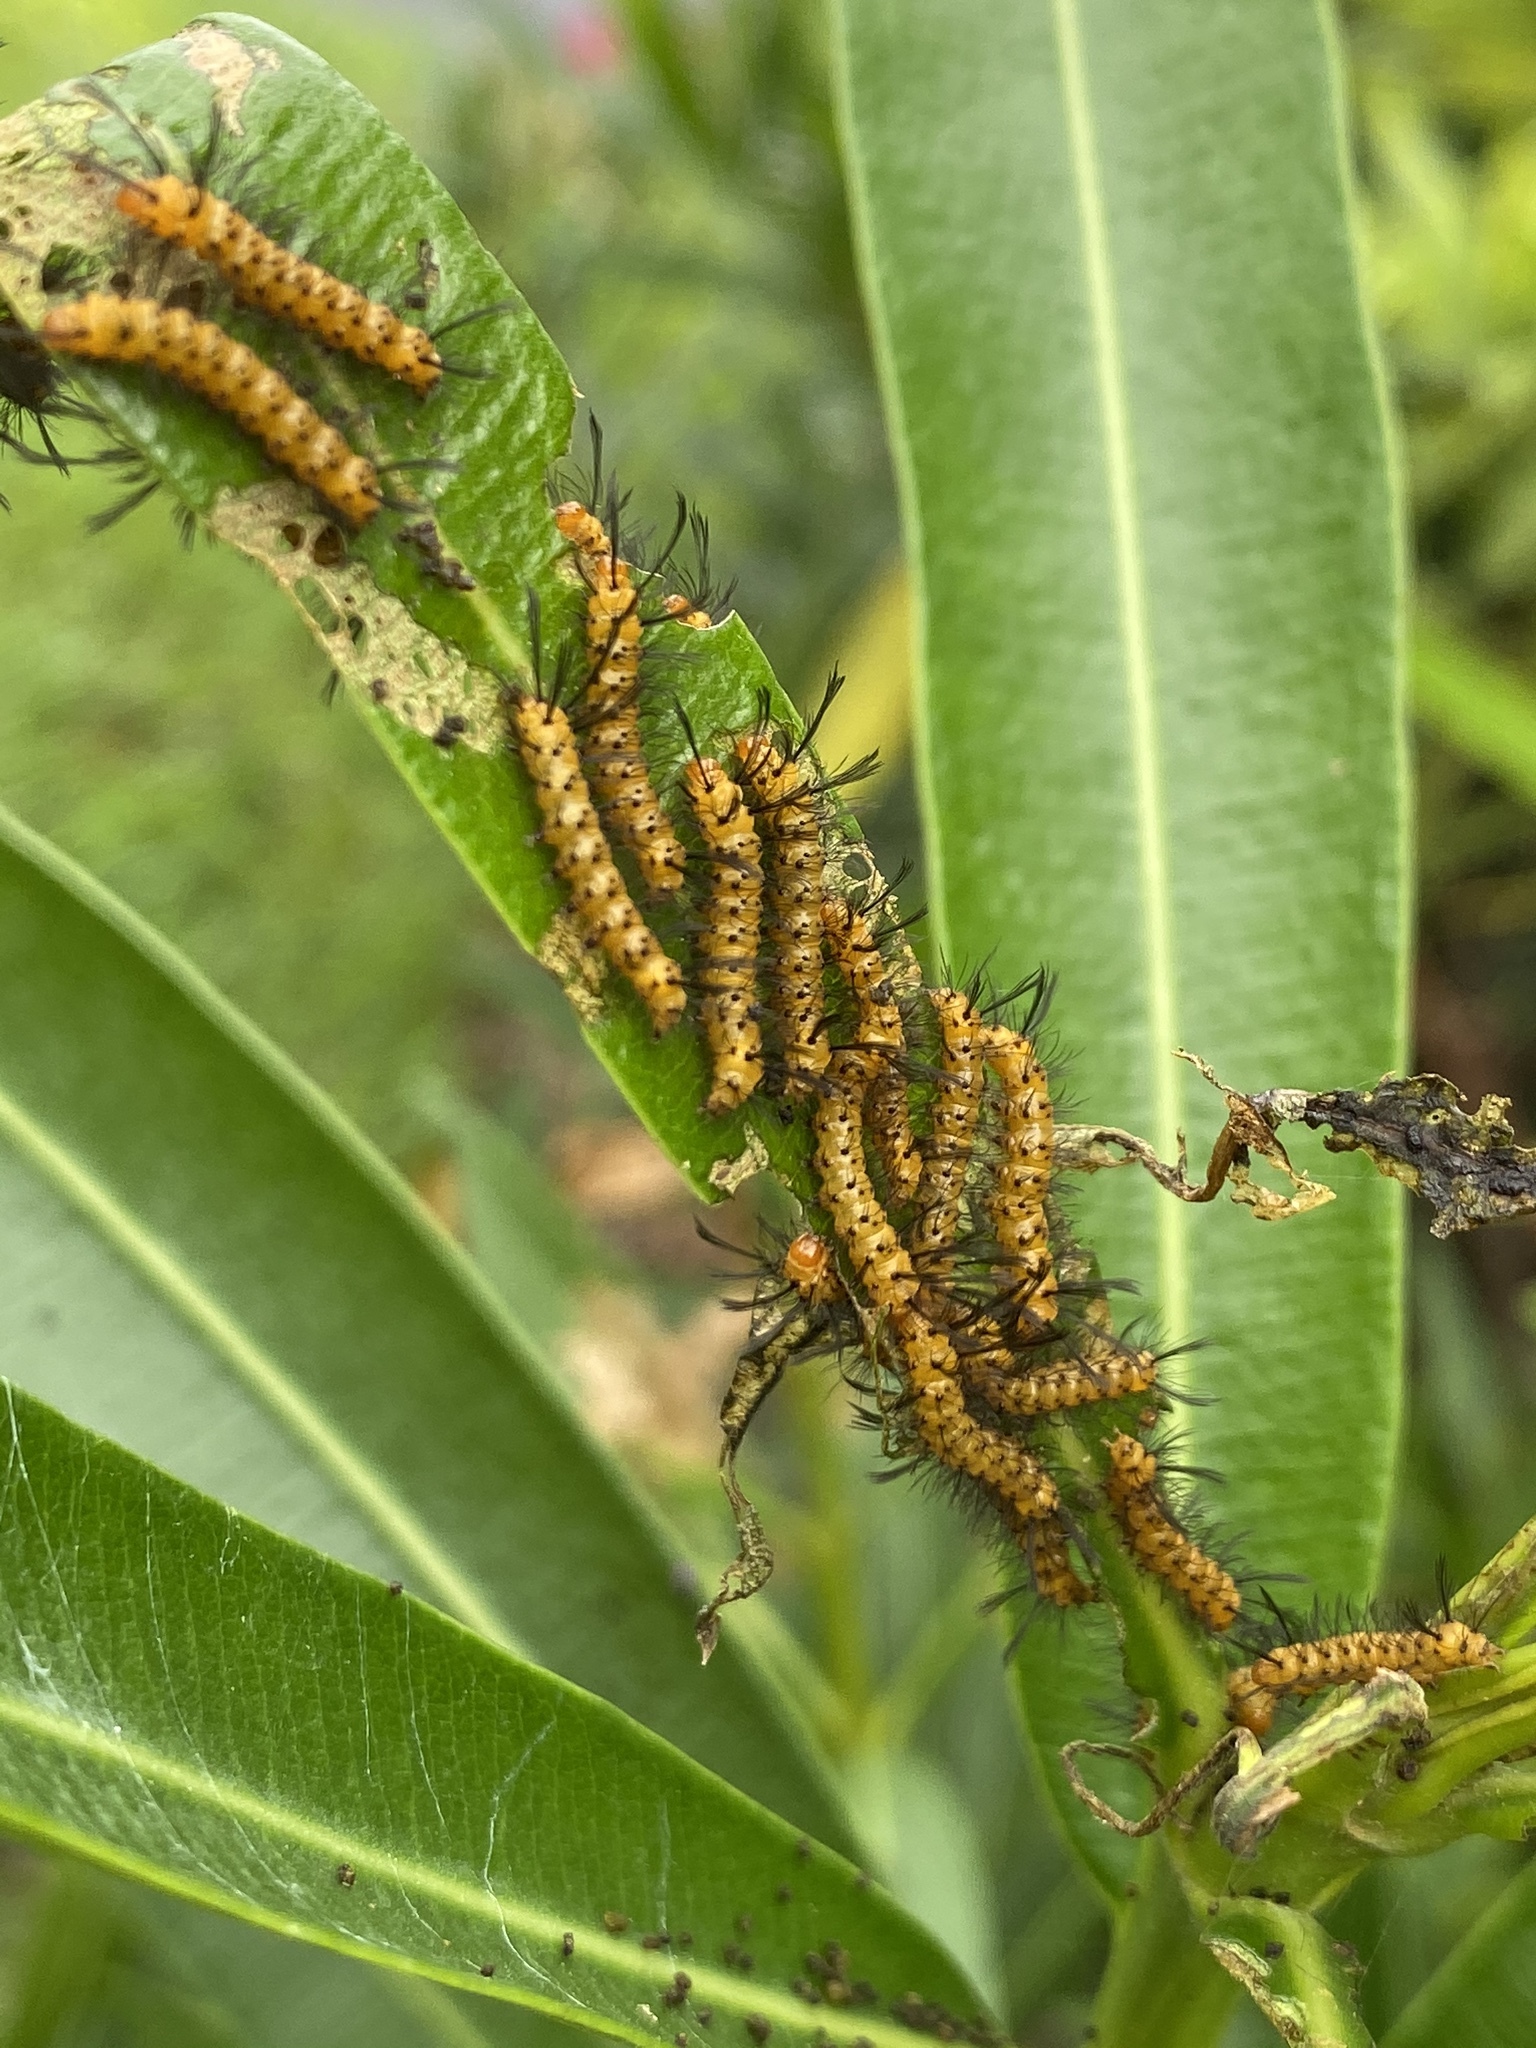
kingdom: Animalia
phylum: Arthropoda
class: Insecta
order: Lepidoptera
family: Erebidae
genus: Syntomeida
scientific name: Syntomeida epilais
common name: Polka-dot wasp moth
